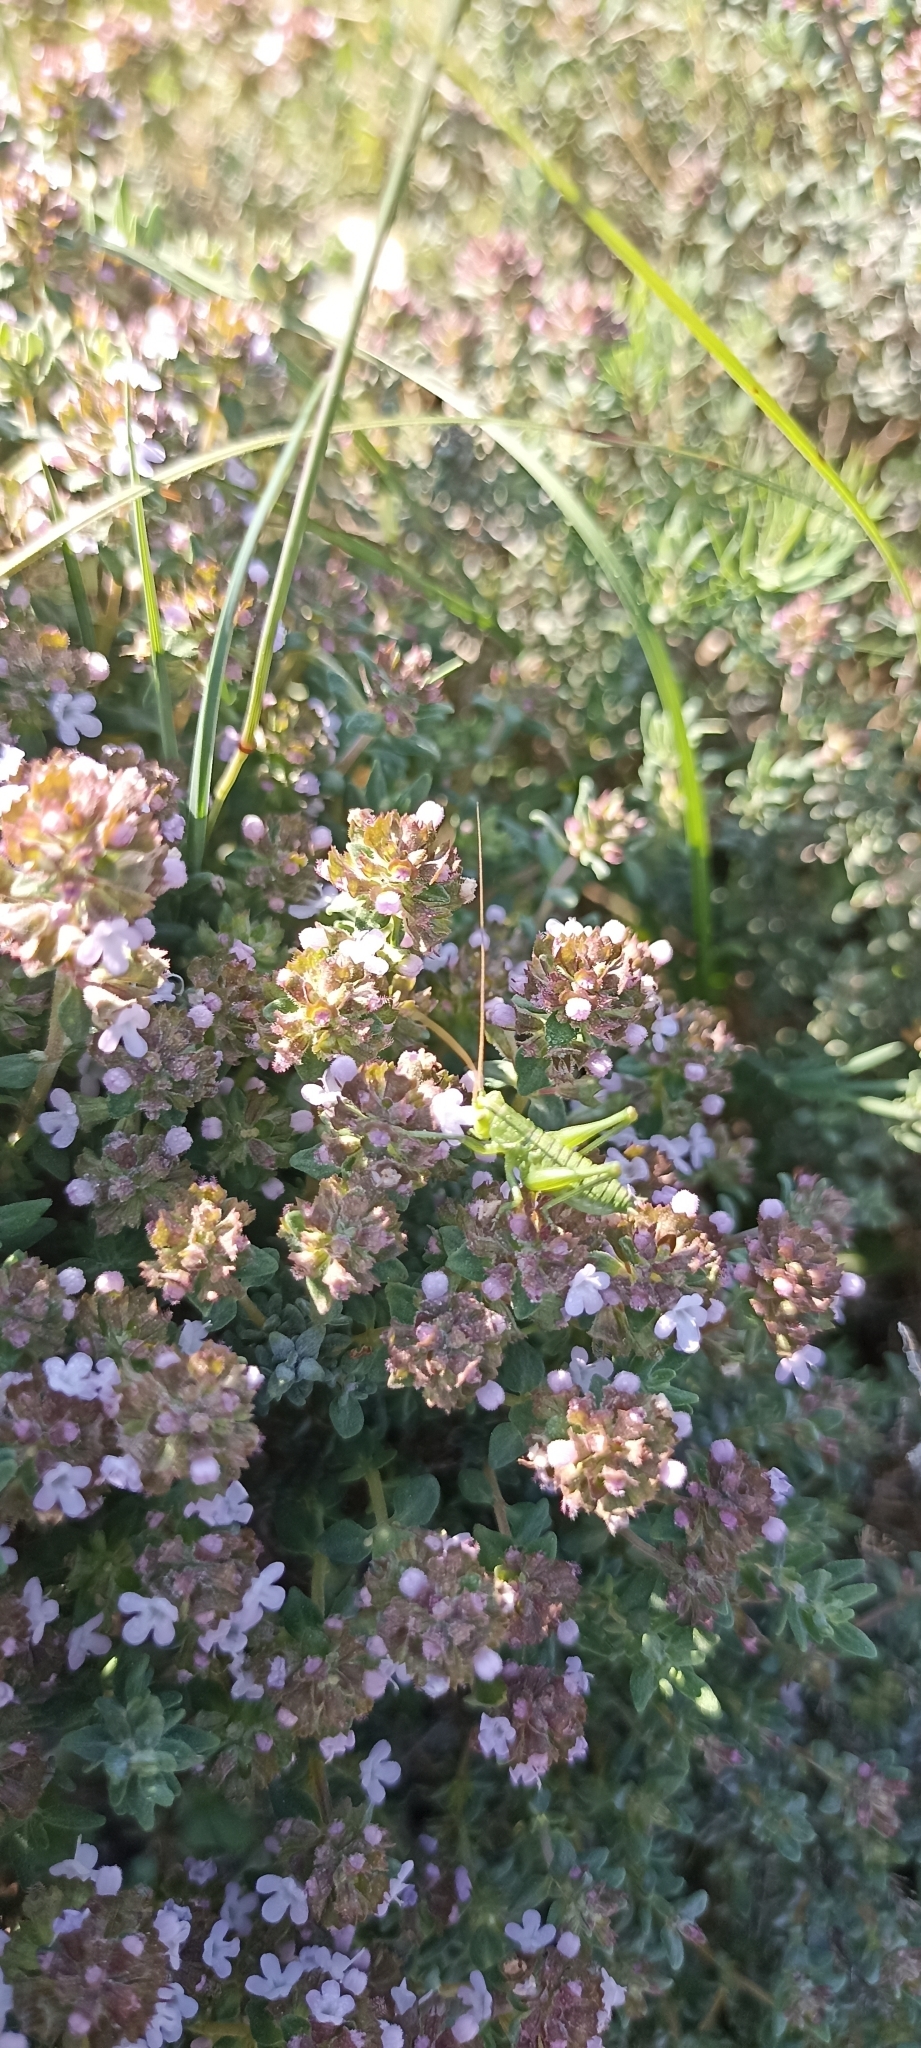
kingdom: Animalia
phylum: Arthropoda
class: Insecta
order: Orthoptera
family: Tettigoniidae
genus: Tettigonia
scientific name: Tettigonia viridissima
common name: Great green bush-cricket
